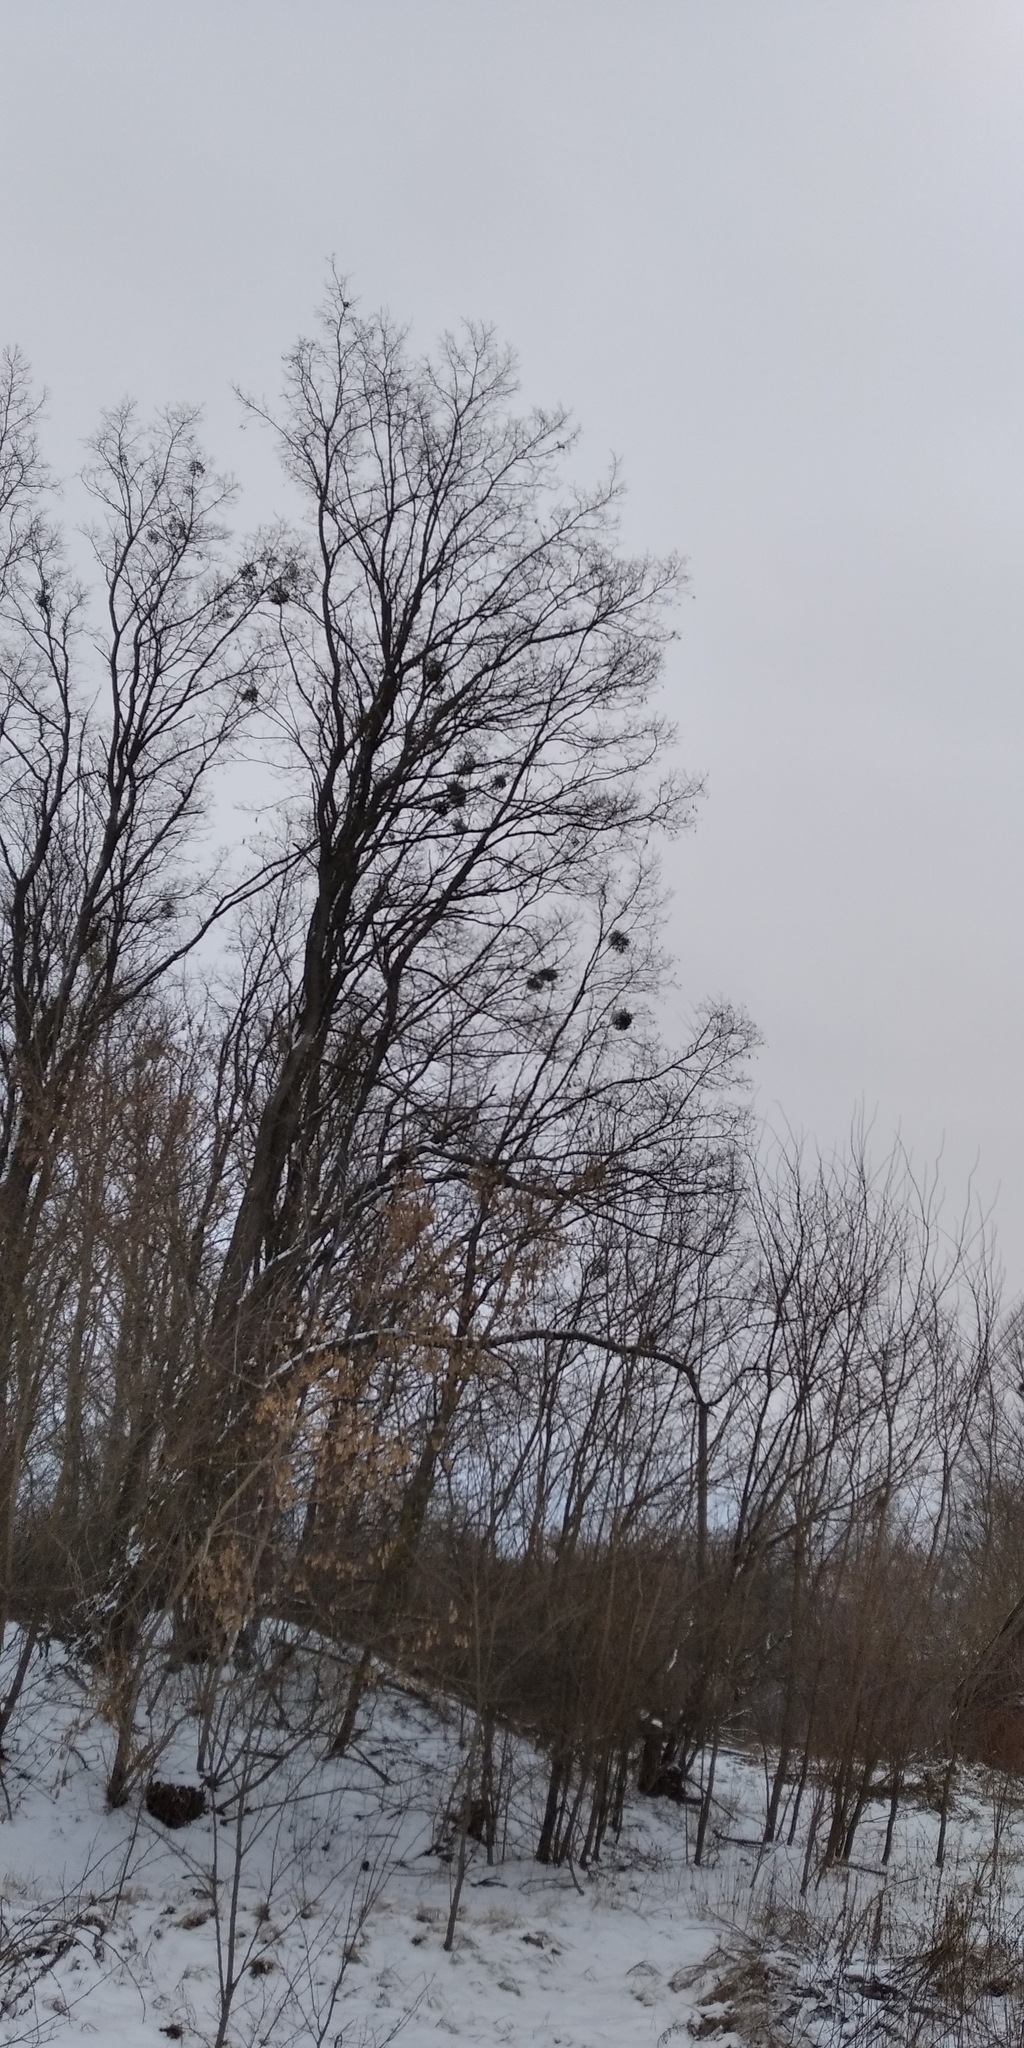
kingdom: Plantae
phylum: Tracheophyta
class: Magnoliopsida
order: Santalales
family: Viscaceae
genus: Viscum
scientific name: Viscum album
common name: Mistletoe
